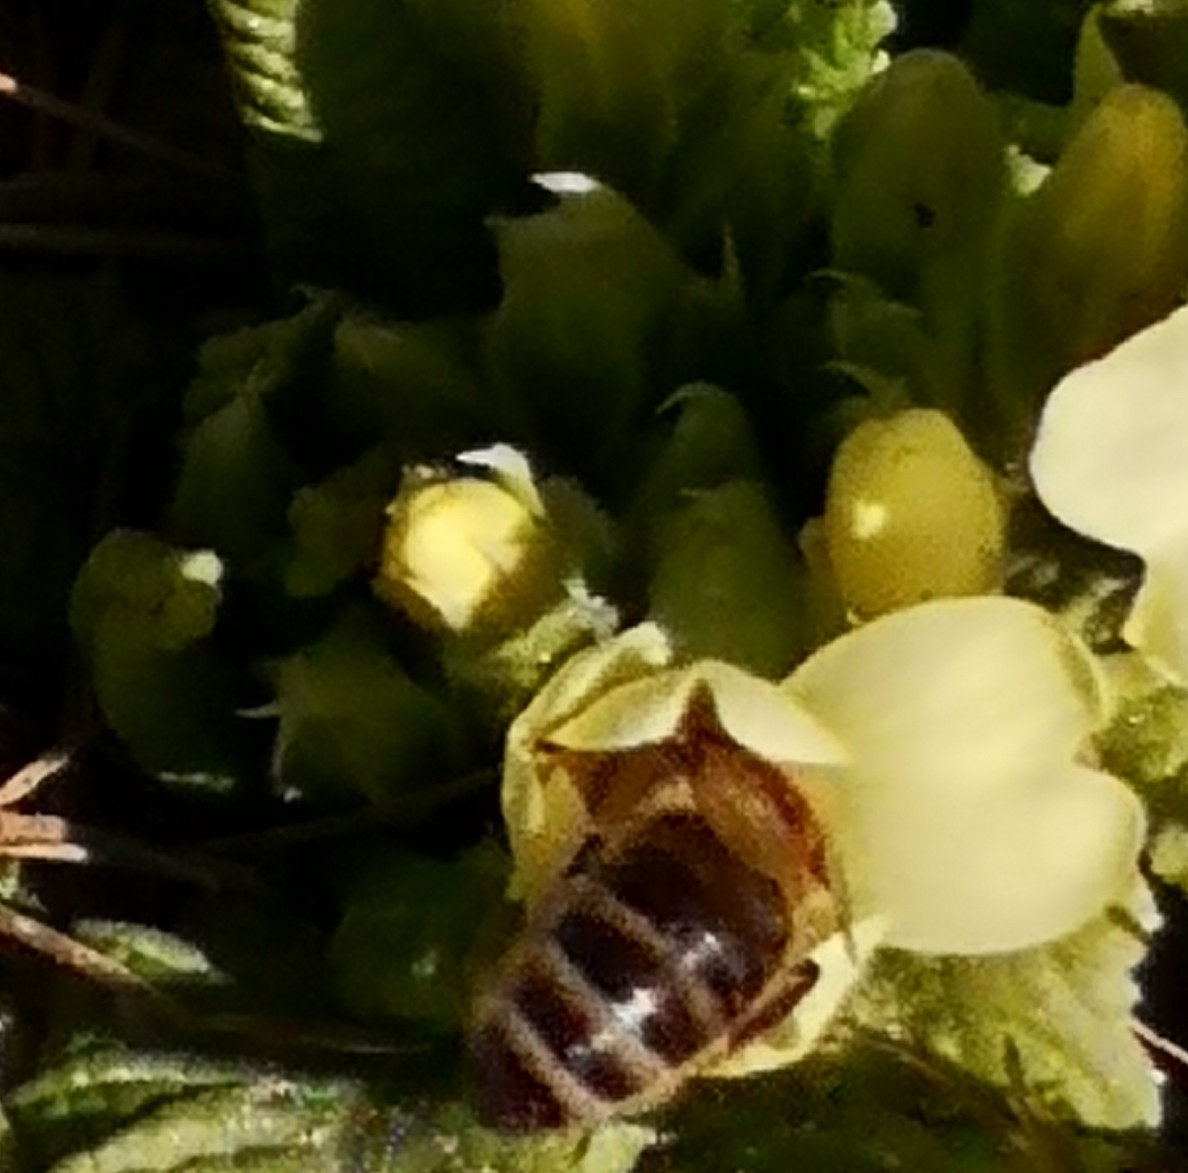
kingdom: Animalia
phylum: Arthropoda
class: Insecta
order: Hymenoptera
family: Apidae
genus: Apis
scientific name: Apis mellifera
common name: Honey bee
